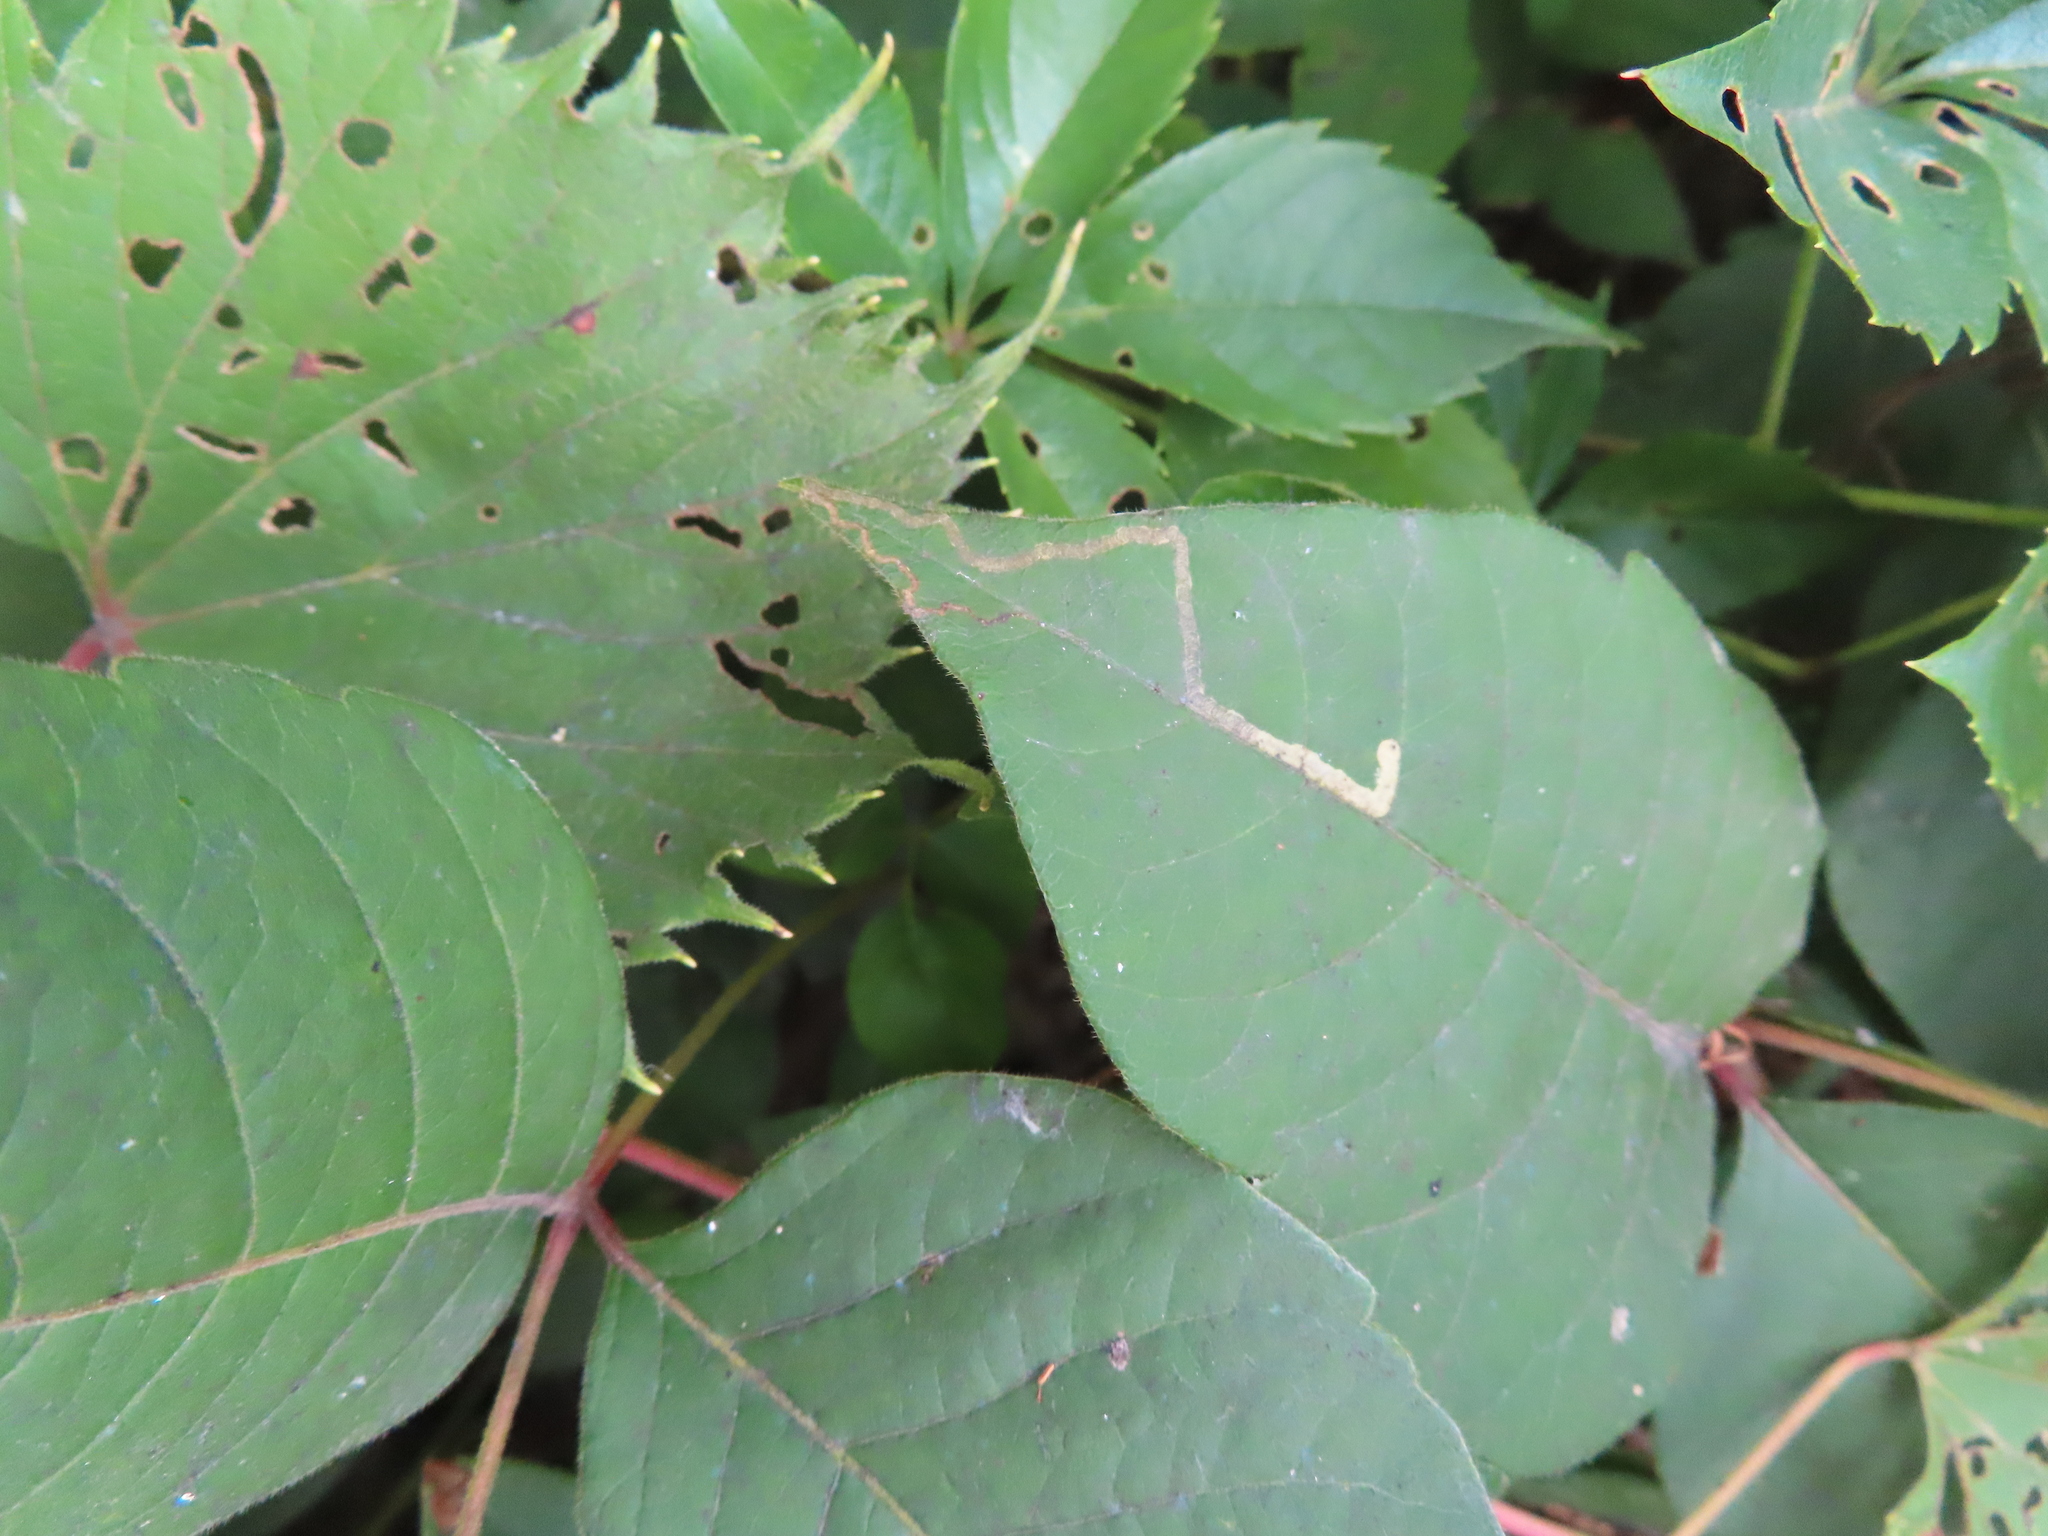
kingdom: Animalia
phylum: Arthropoda
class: Insecta
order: Lepidoptera
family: Nepticulidae
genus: Stigmella
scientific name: Stigmella rhoifoliella
